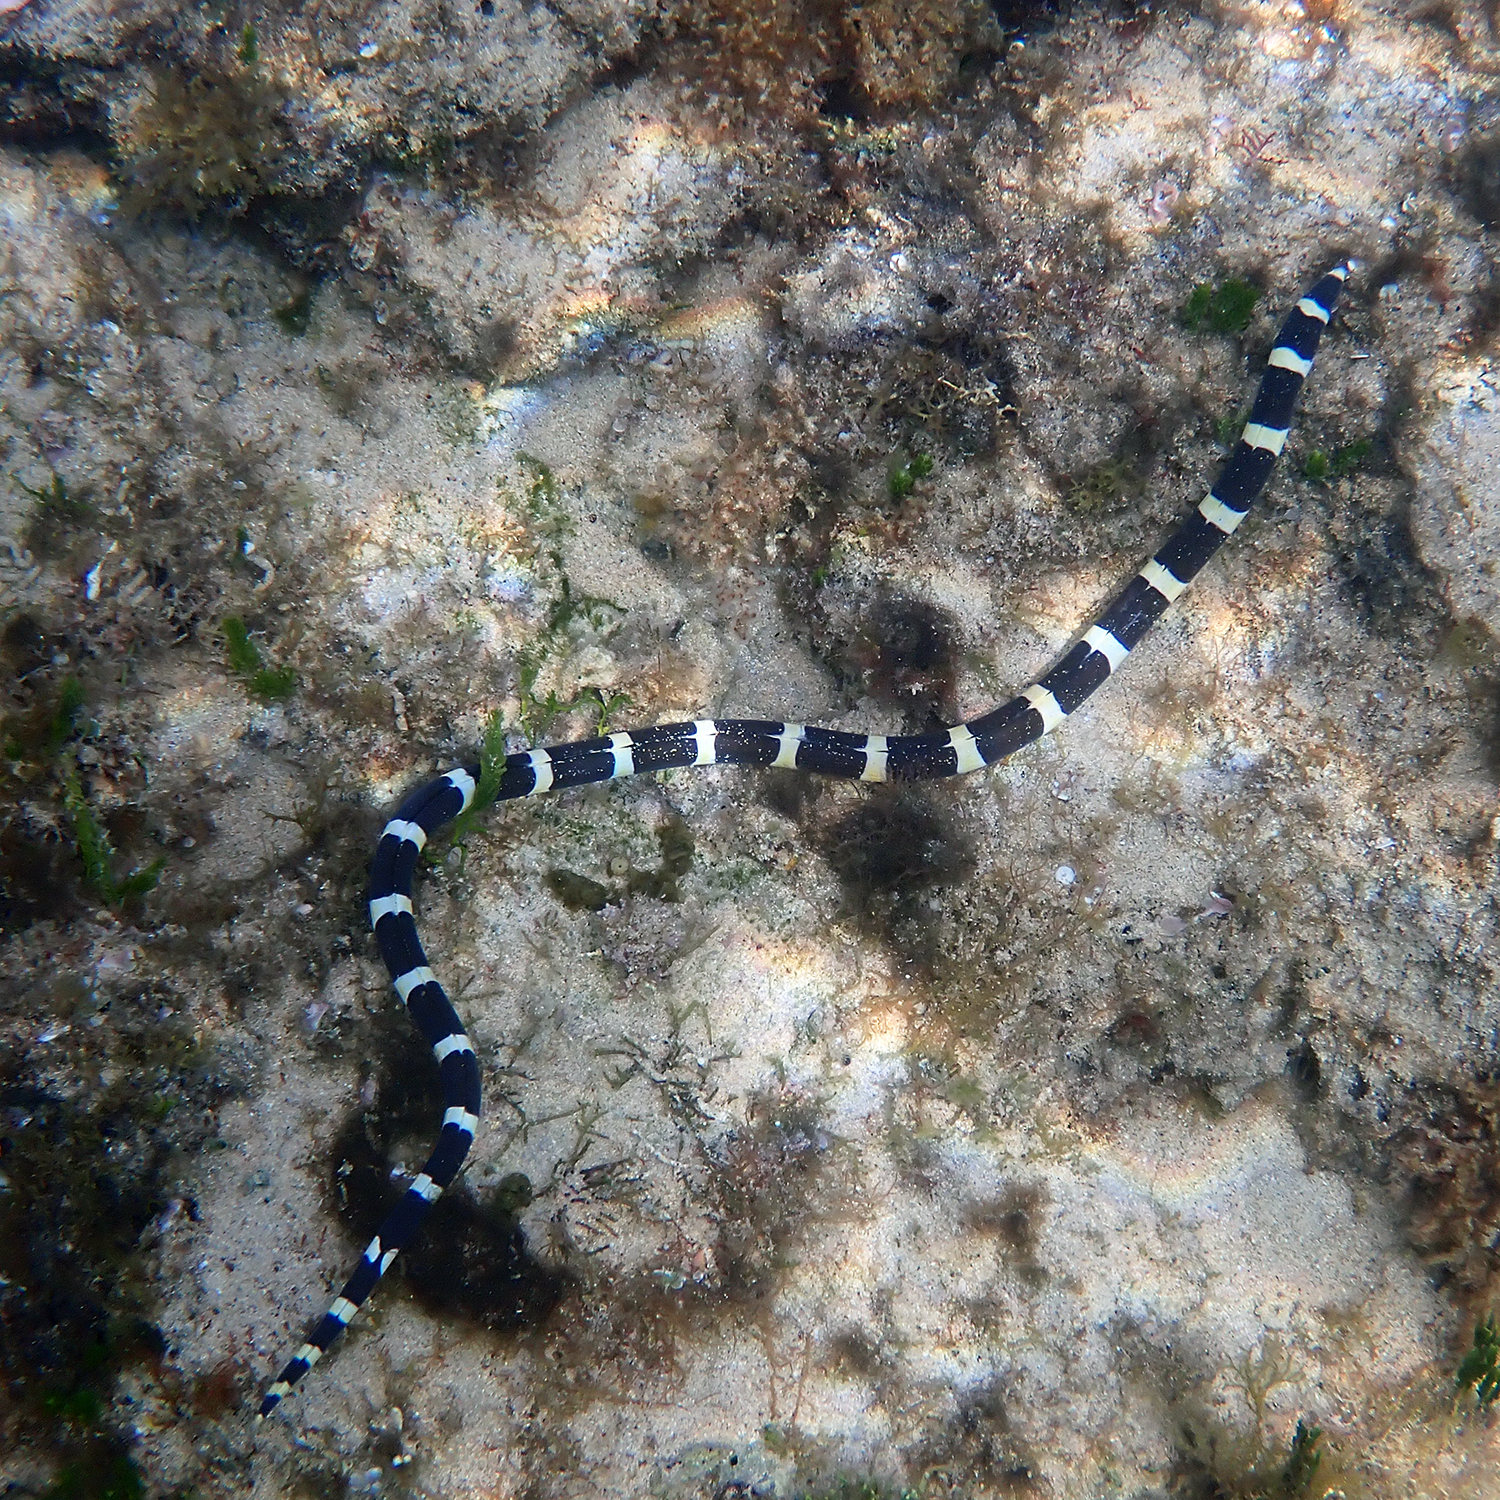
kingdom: Animalia
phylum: Chordata
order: Anguilliformes
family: Ophichthidae
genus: Leiuranus
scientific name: Leiuranus semicinctus
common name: Saddled snake eel
